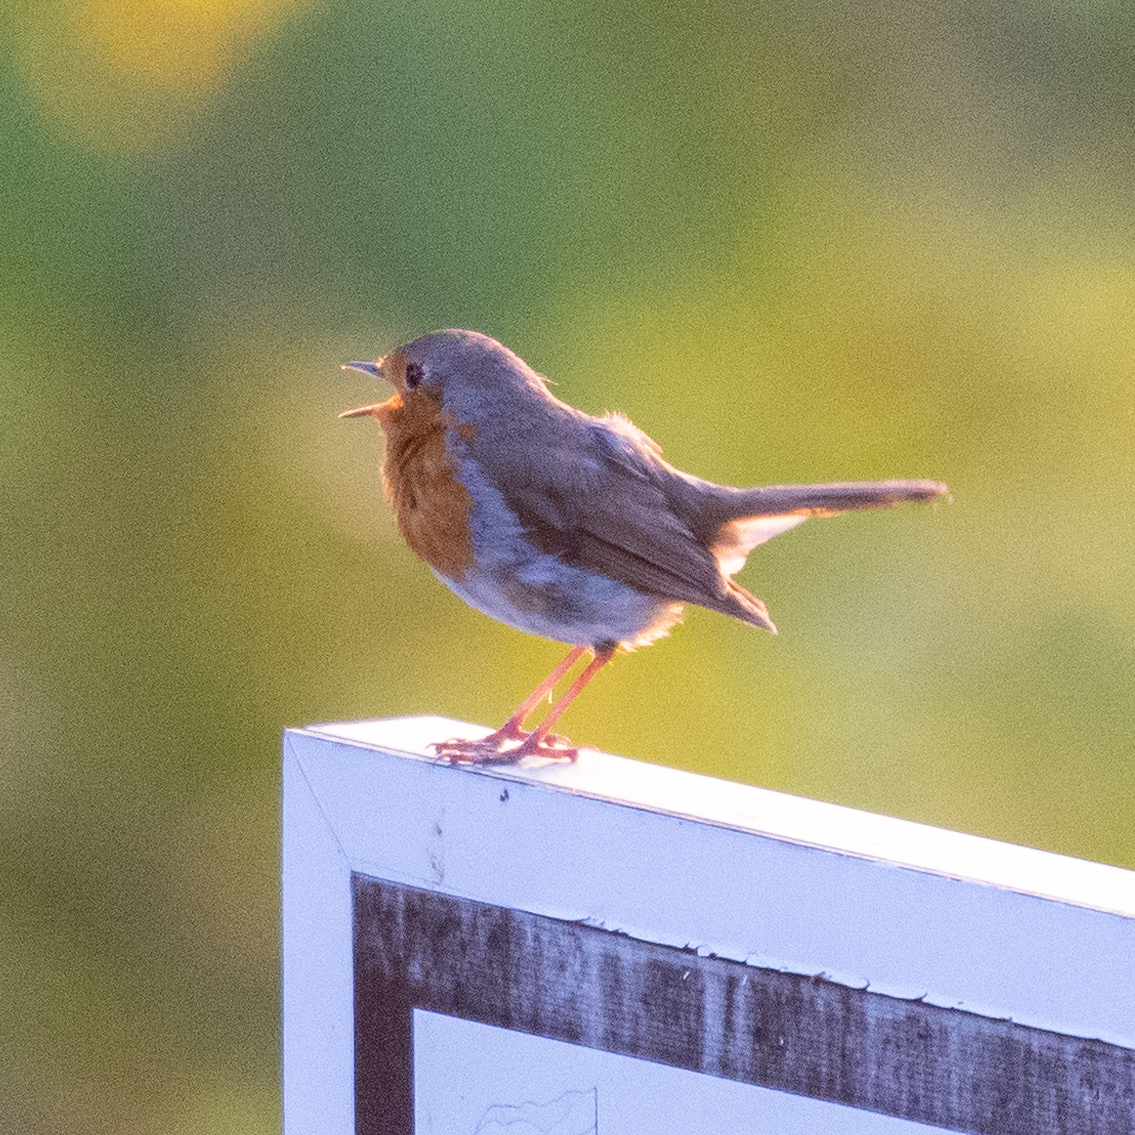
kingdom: Animalia
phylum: Chordata
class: Aves
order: Passeriformes
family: Muscicapidae
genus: Erithacus
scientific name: Erithacus rubecula
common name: European robin
